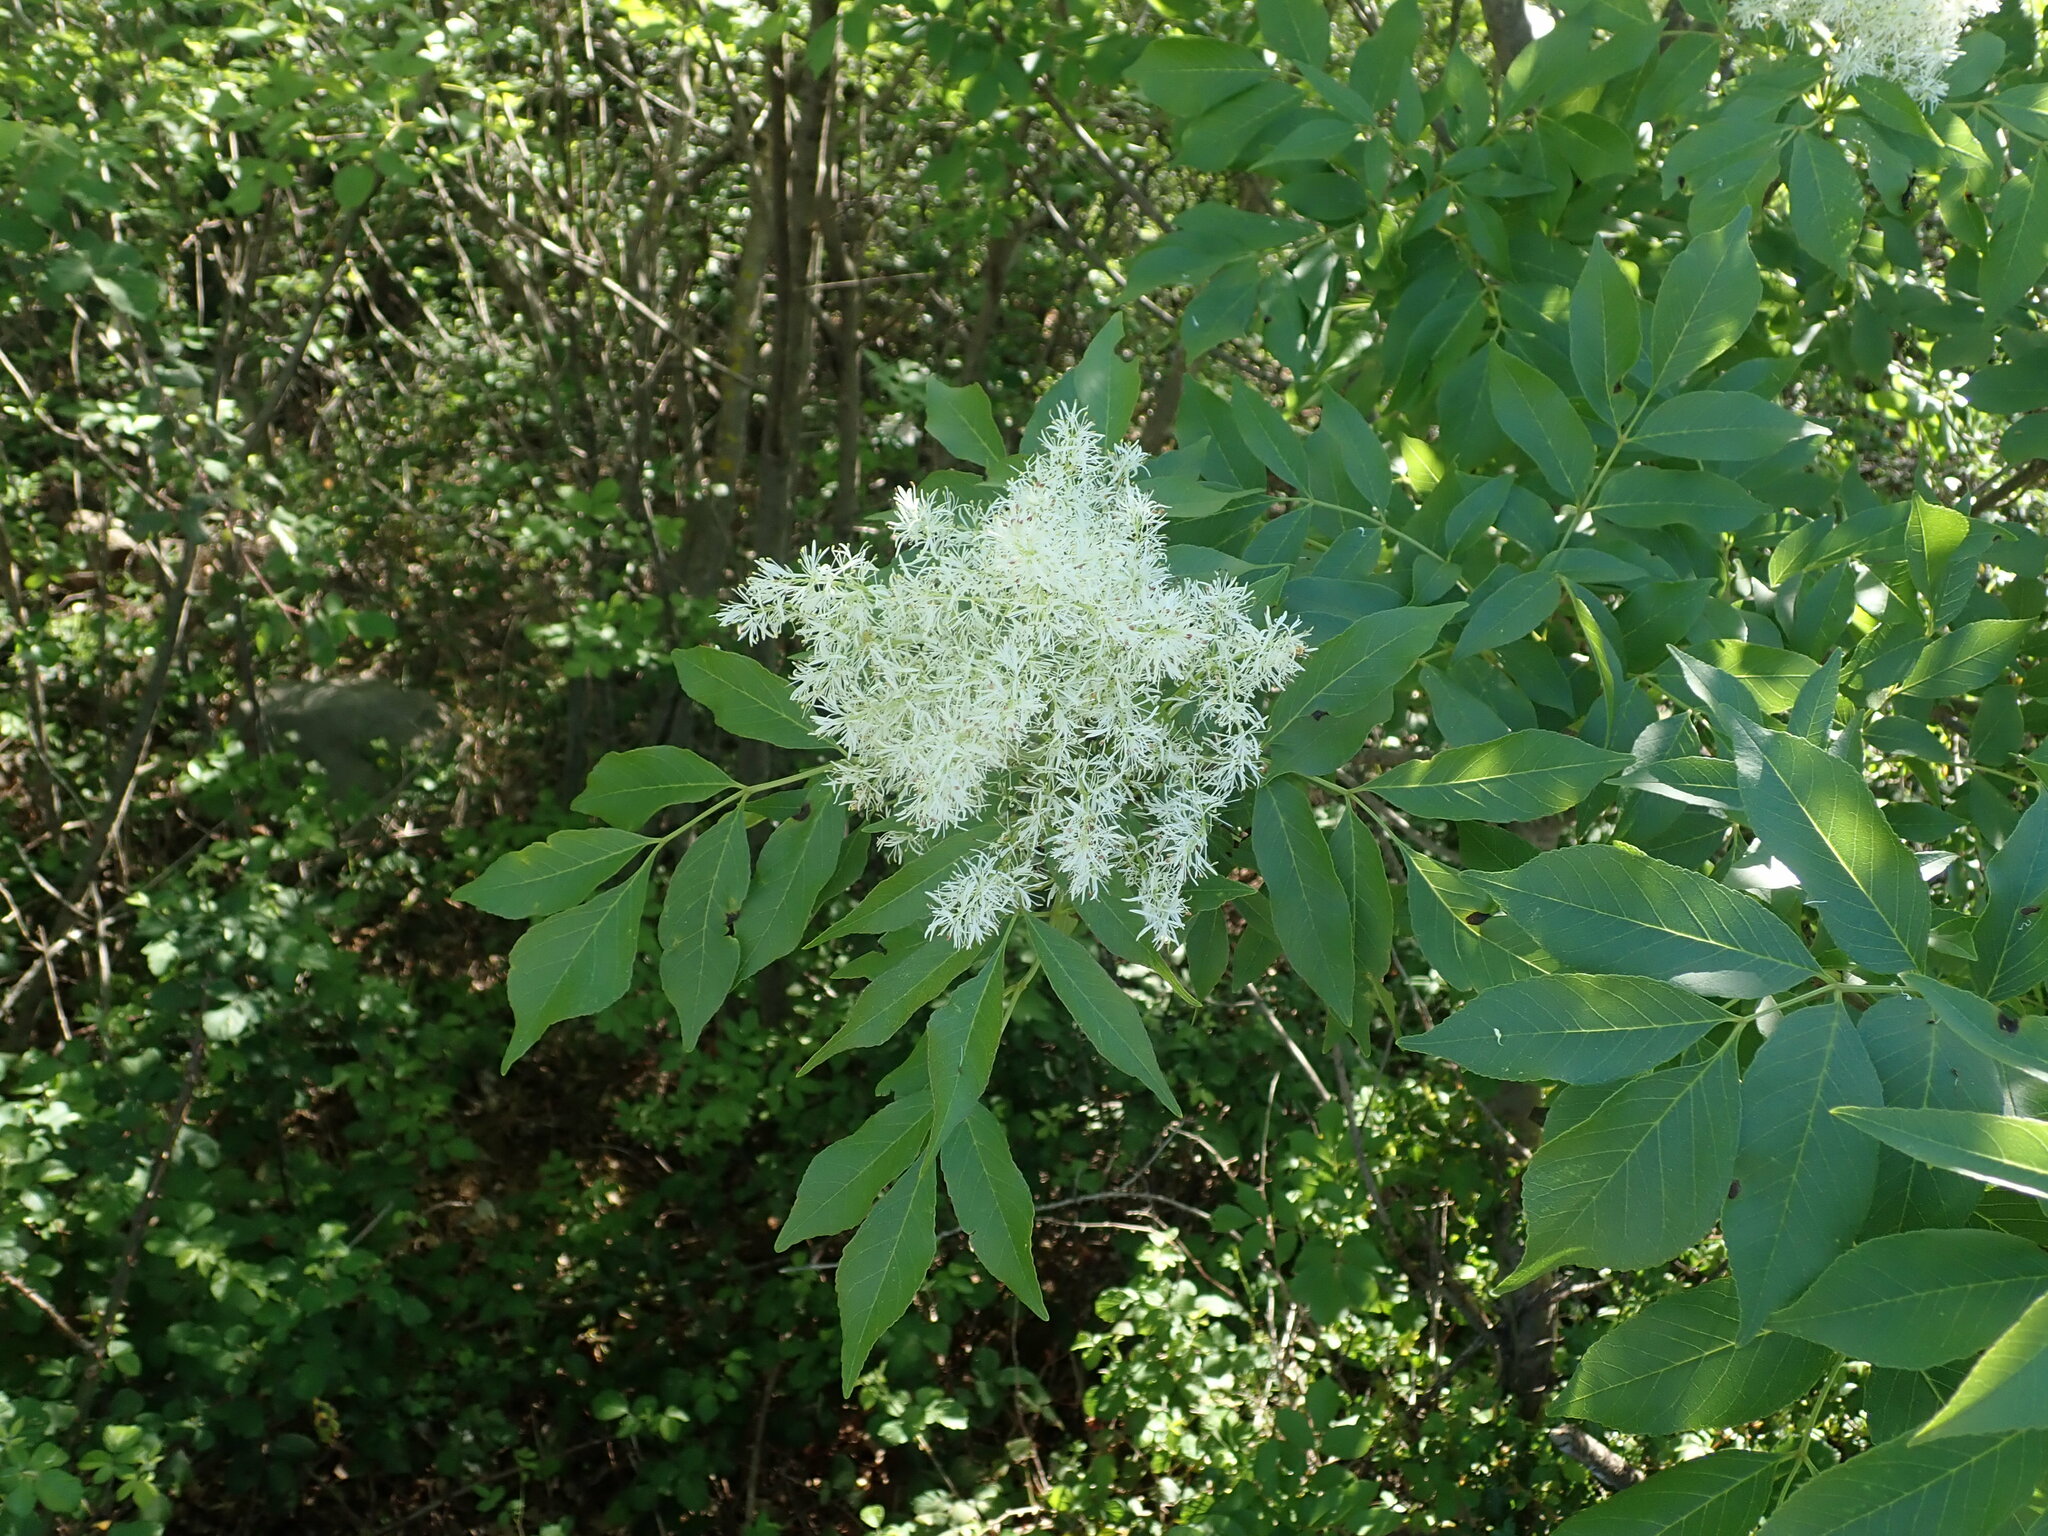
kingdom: Plantae
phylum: Tracheophyta
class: Magnoliopsida
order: Lamiales
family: Oleaceae
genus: Fraxinus
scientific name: Fraxinus ornus
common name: Manna ash
